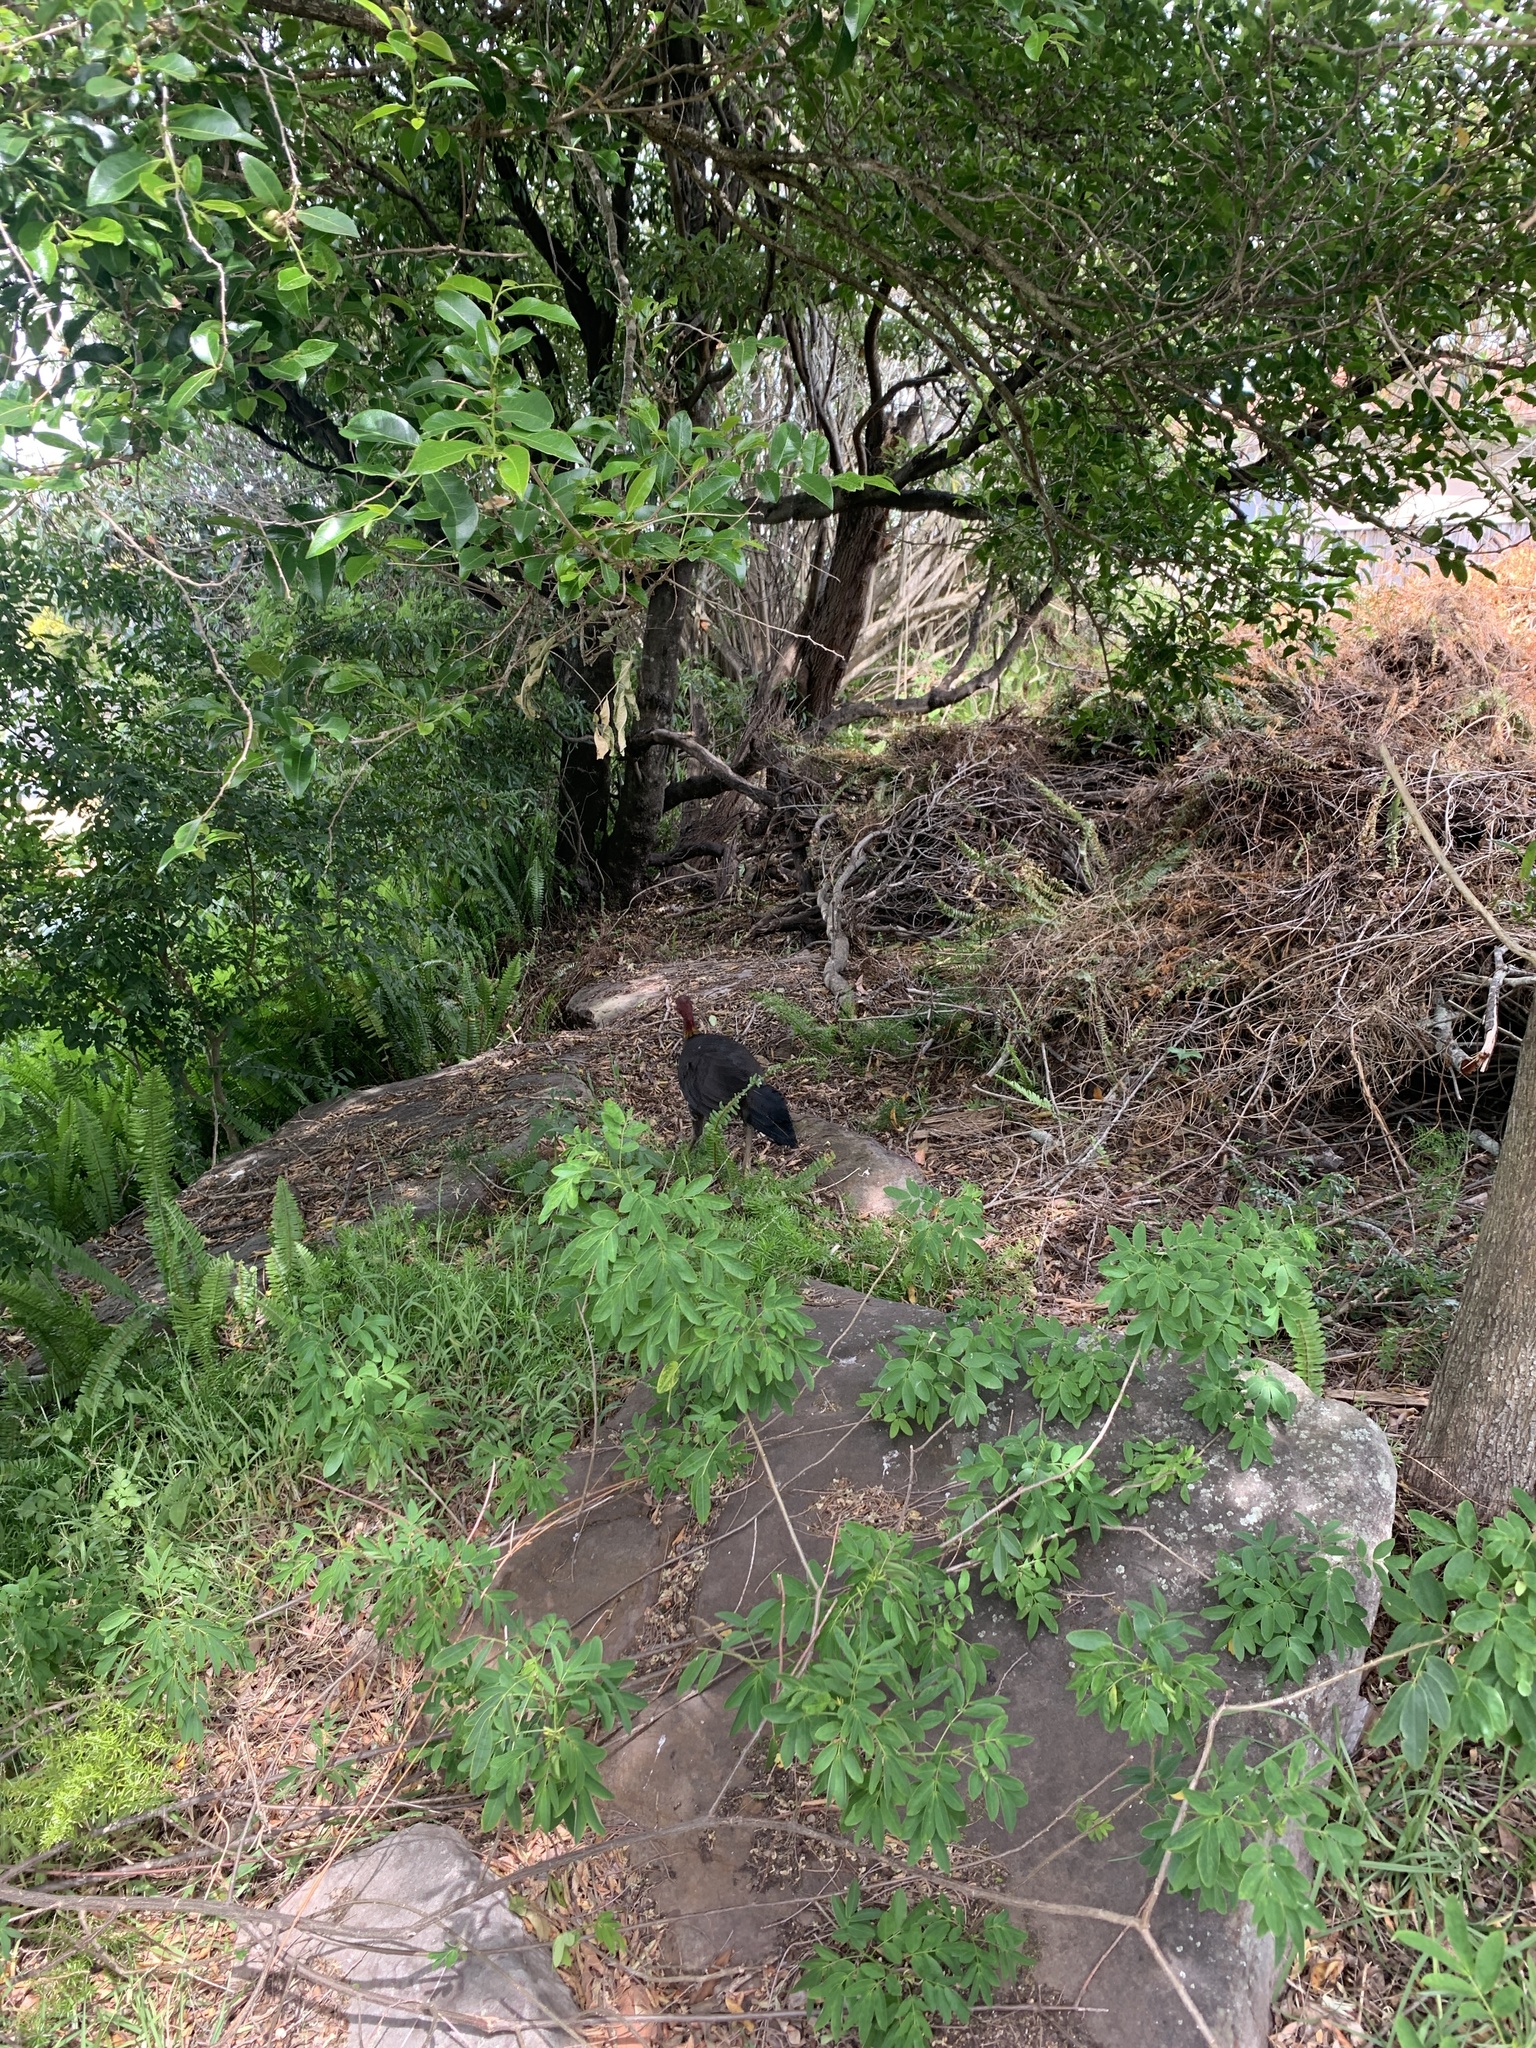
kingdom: Animalia
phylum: Chordata
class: Aves
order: Galliformes
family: Megapodiidae
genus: Alectura
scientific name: Alectura lathami
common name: Australian brushturkey
